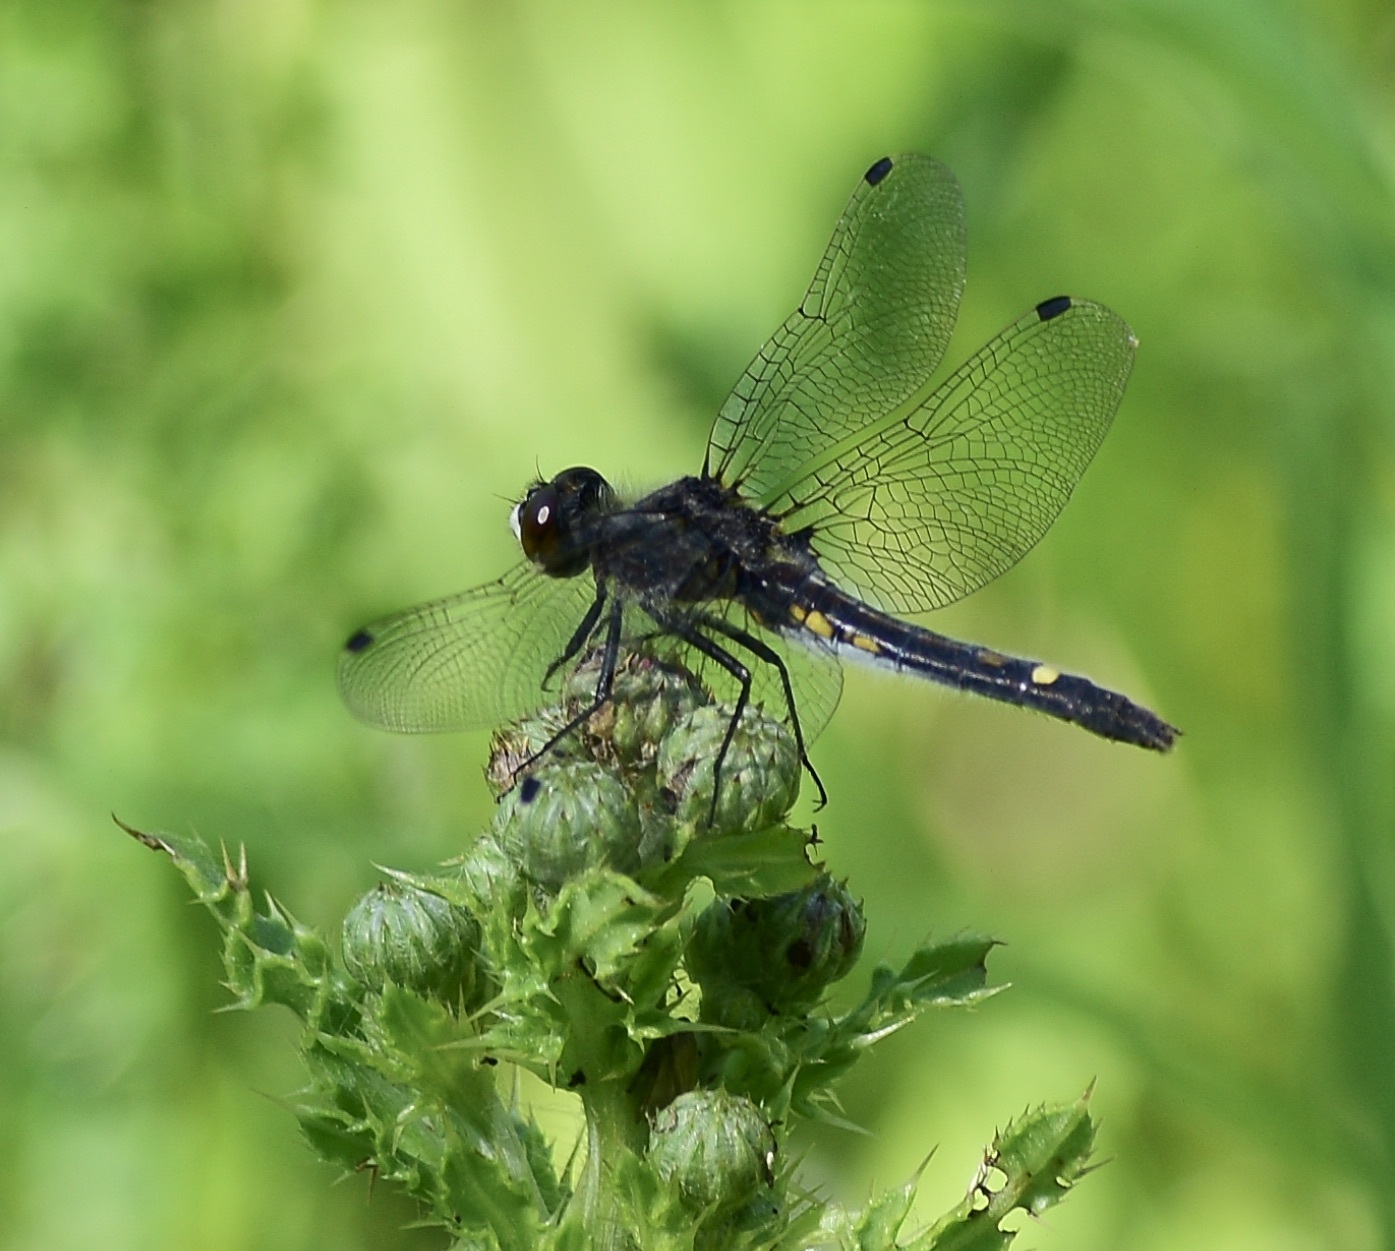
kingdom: Animalia
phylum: Arthropoda
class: Insecta
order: Odonata
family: Libellulidae
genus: Leucorrhinia
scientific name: Leucorrhinia intacta
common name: Dot-tailed whiteface
